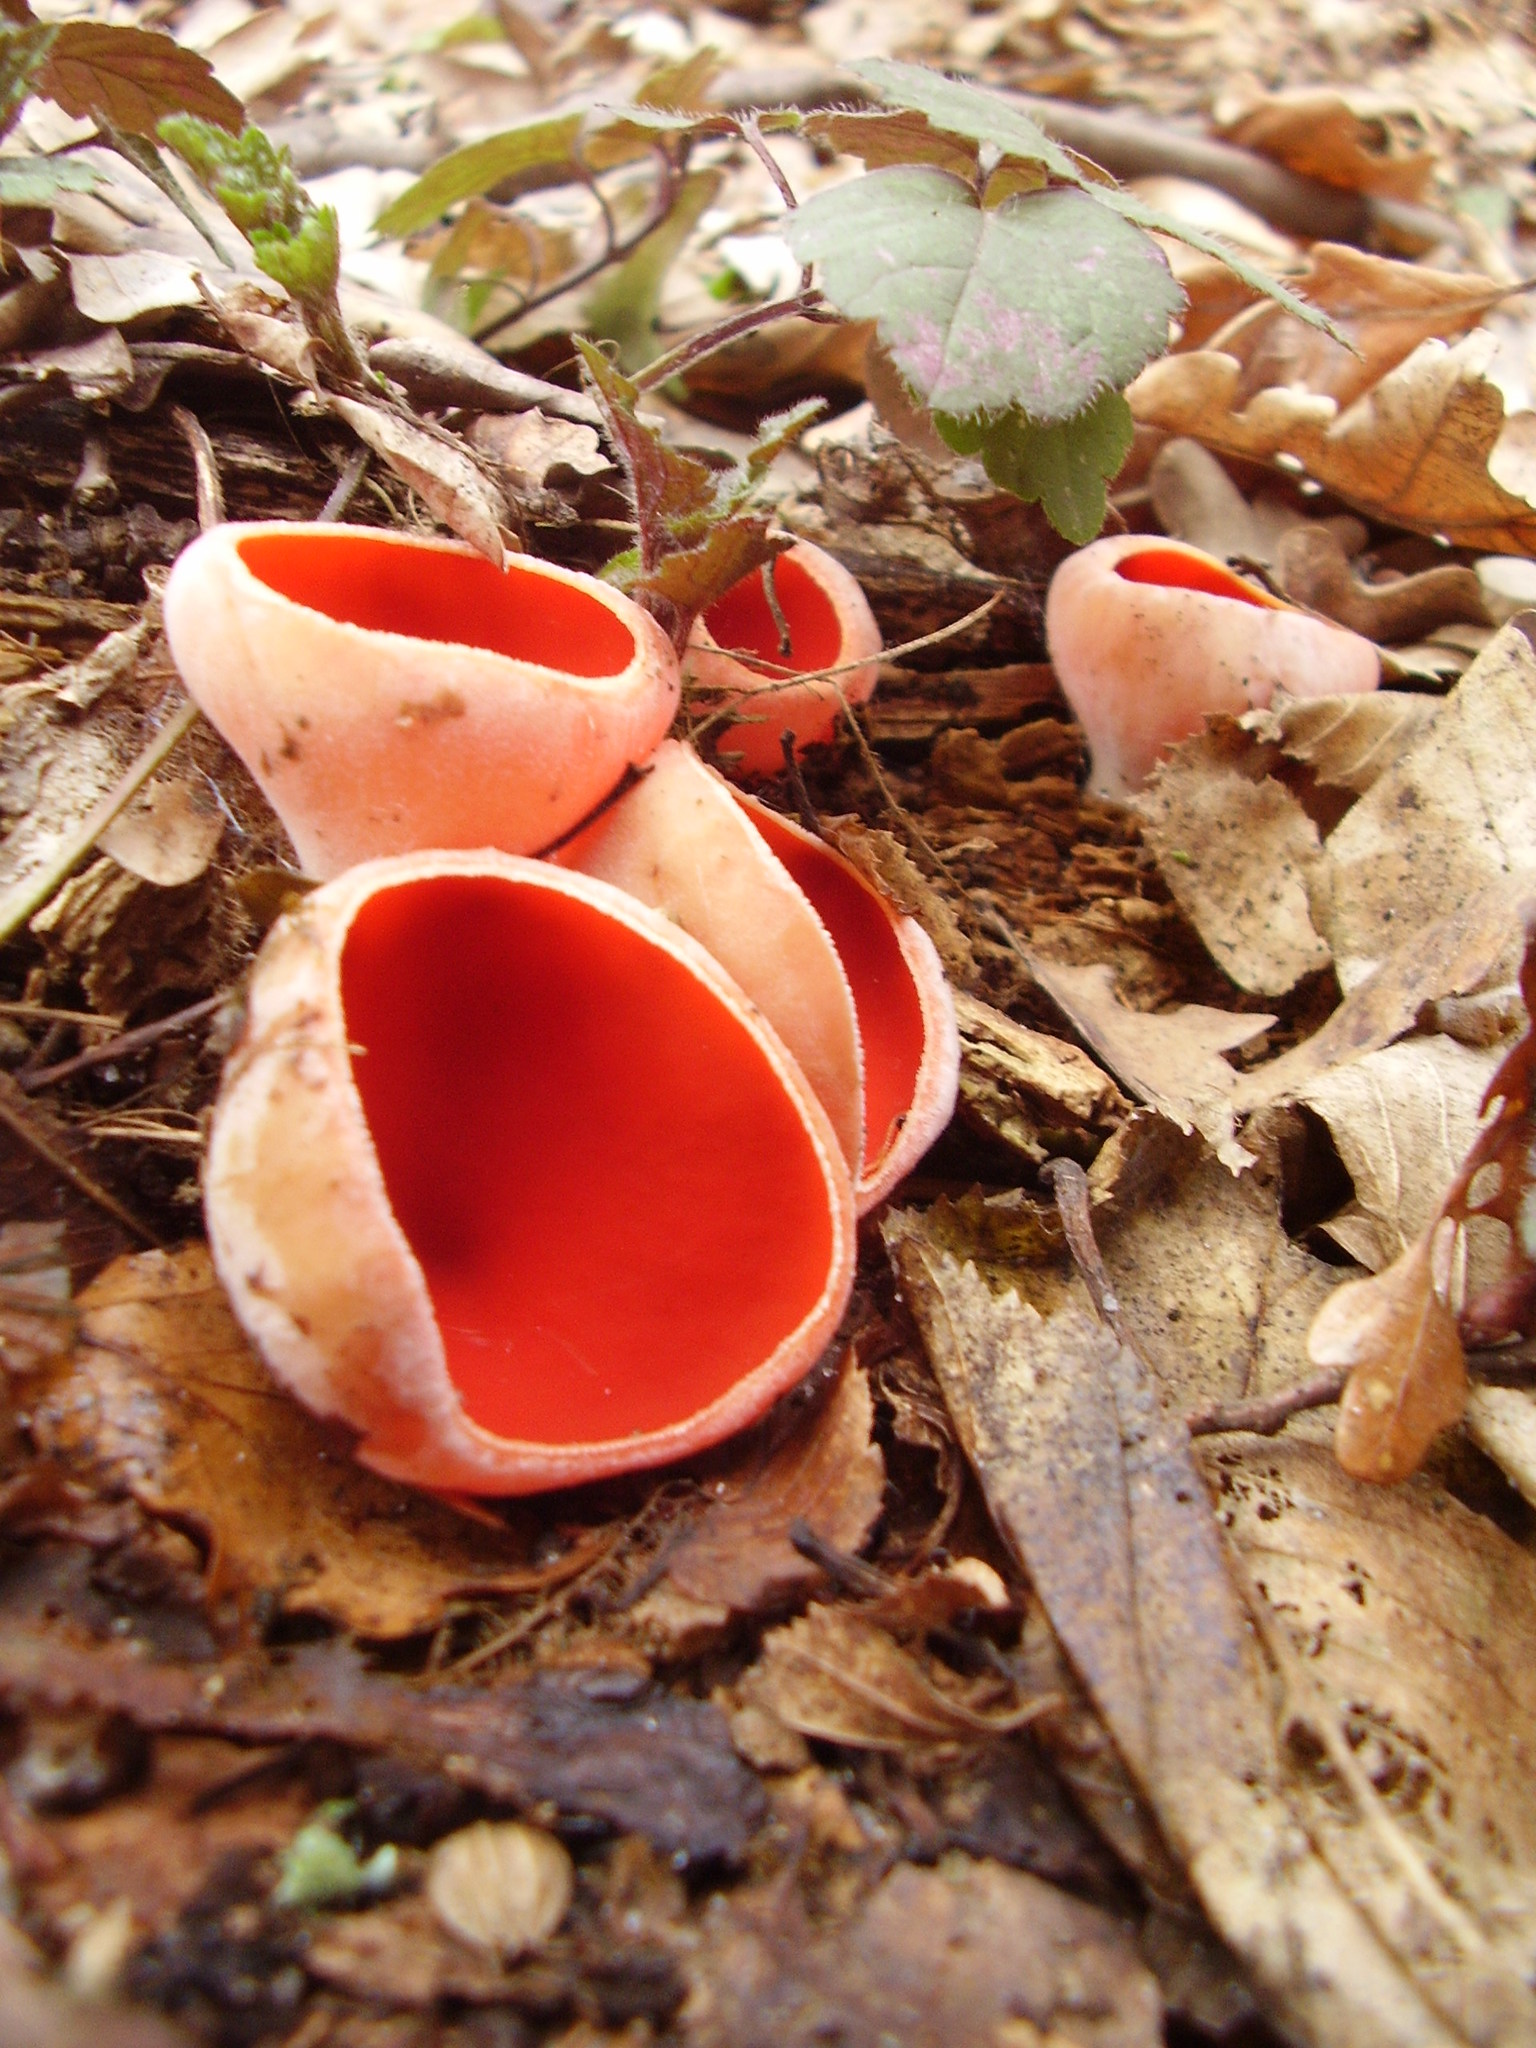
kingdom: Fungi
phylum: Ascomycota
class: Pezizomycetes
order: Pezizales
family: Sarcoscyphaceae
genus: Sarcoscypha
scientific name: Sarcoscypha austriaca
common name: Scarlet elfcup
